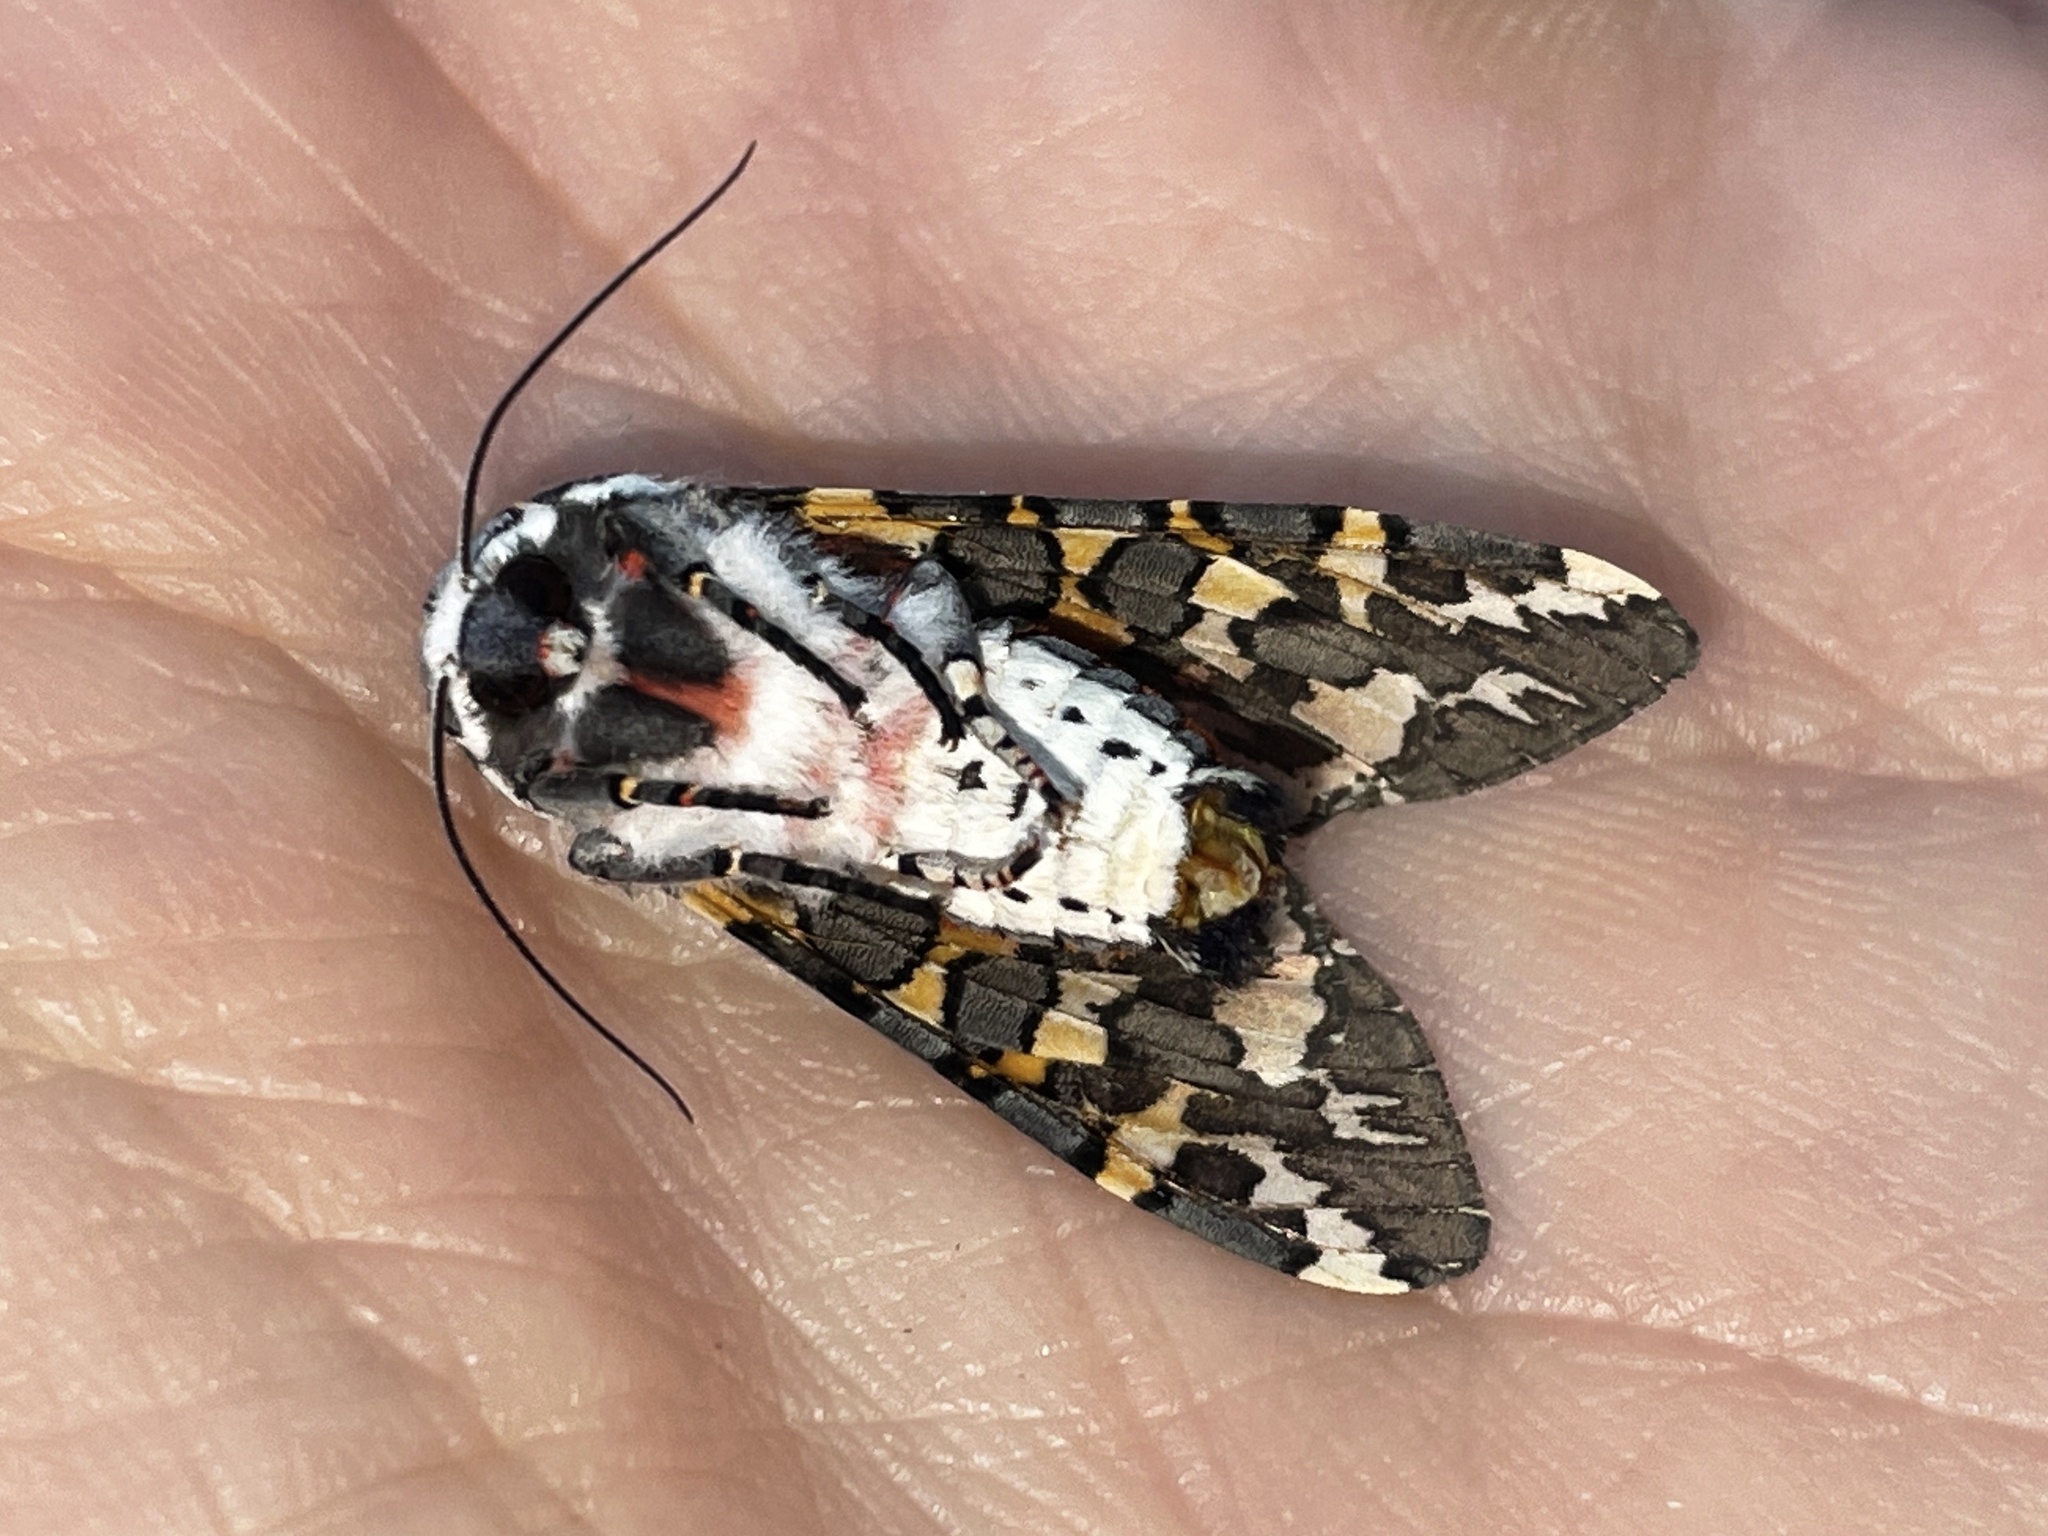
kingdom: Animalia
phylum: Arthropoda
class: Insecta
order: Lepidoptera
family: Erebidae
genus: Arachnis
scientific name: Arachnis picta
